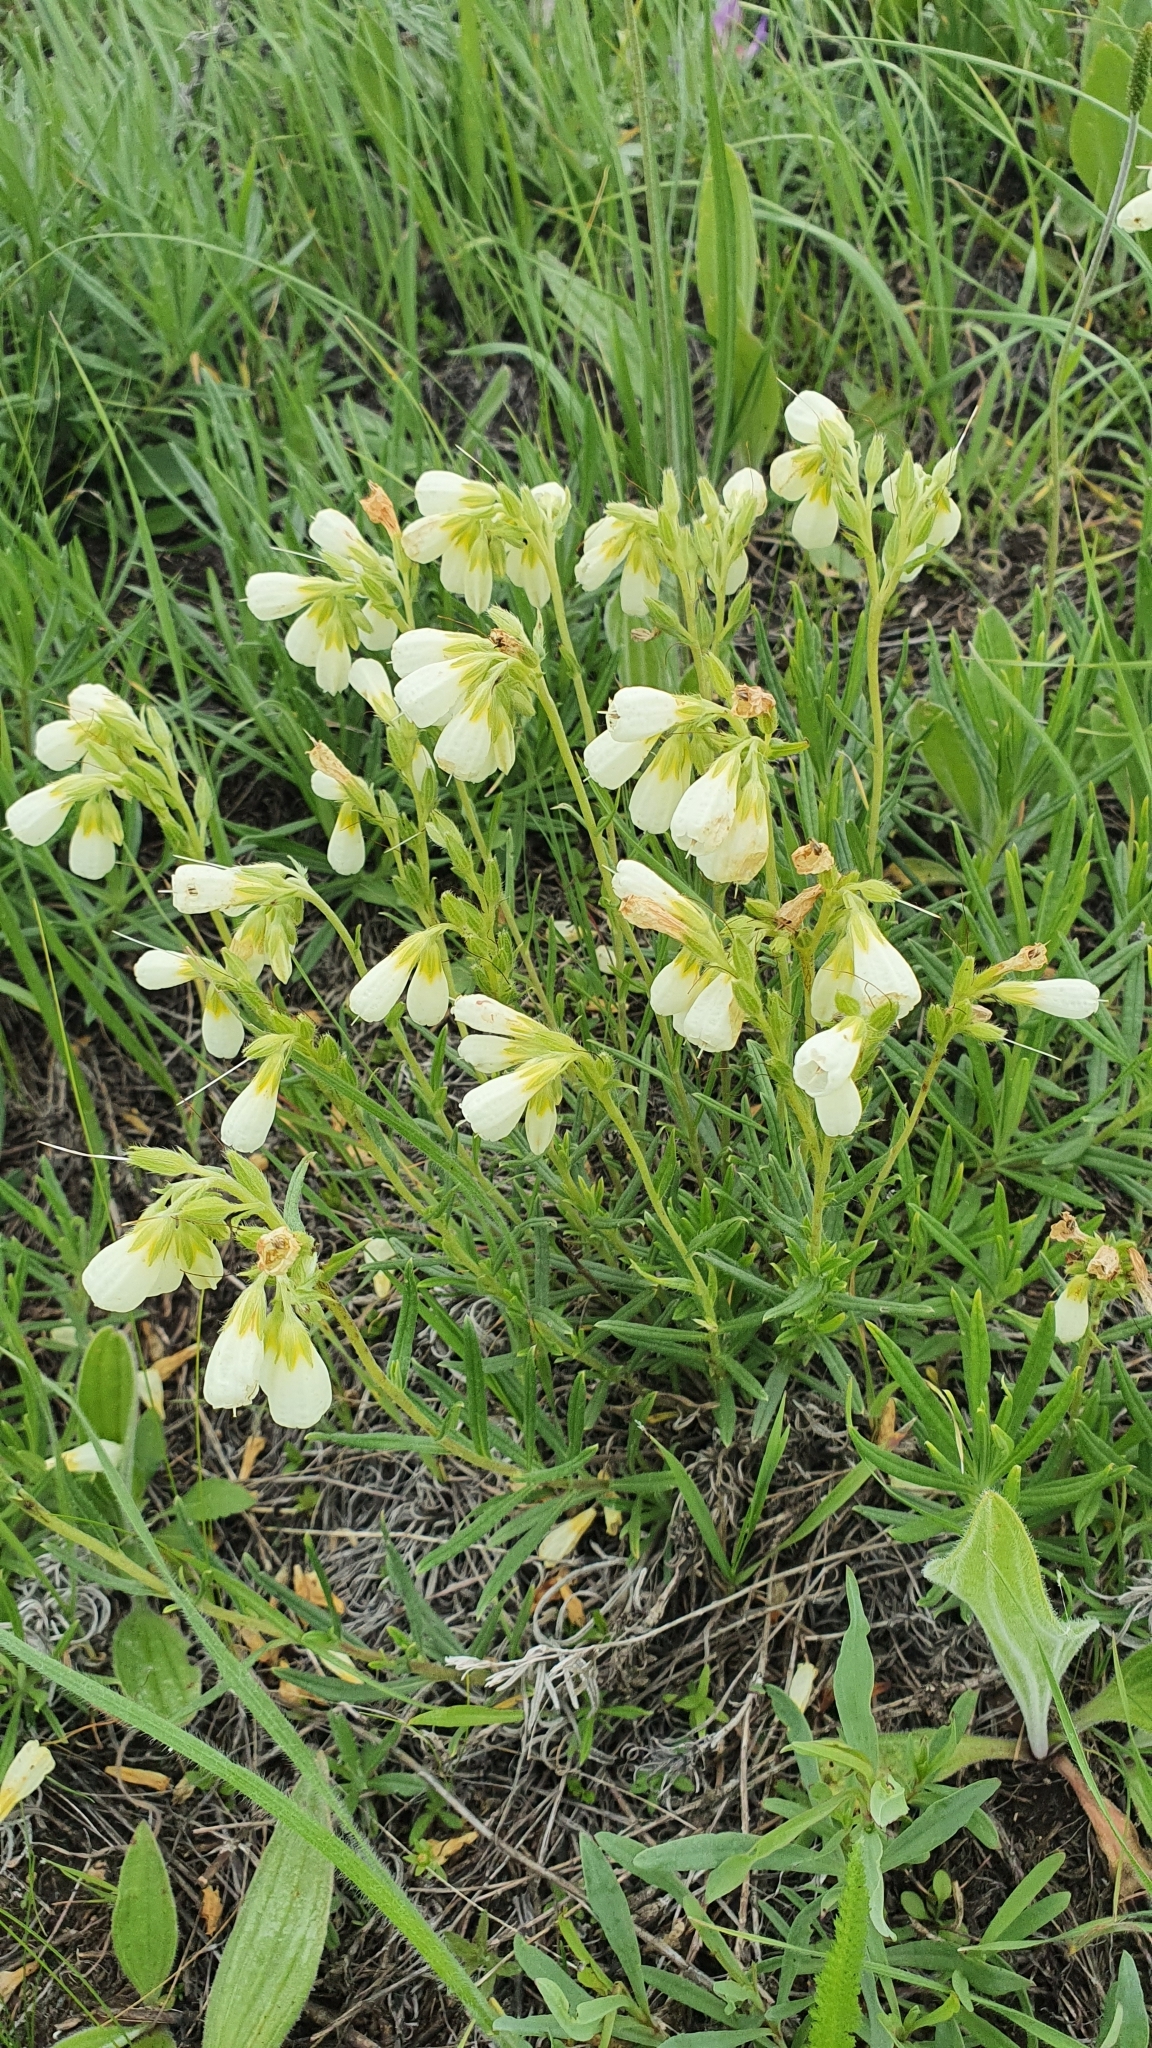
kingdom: Plantae
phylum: Tracheophyta
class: Magnoliopsida
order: Boraginales
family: Boraginaceae
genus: Onosma
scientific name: Onosma simplicissima
